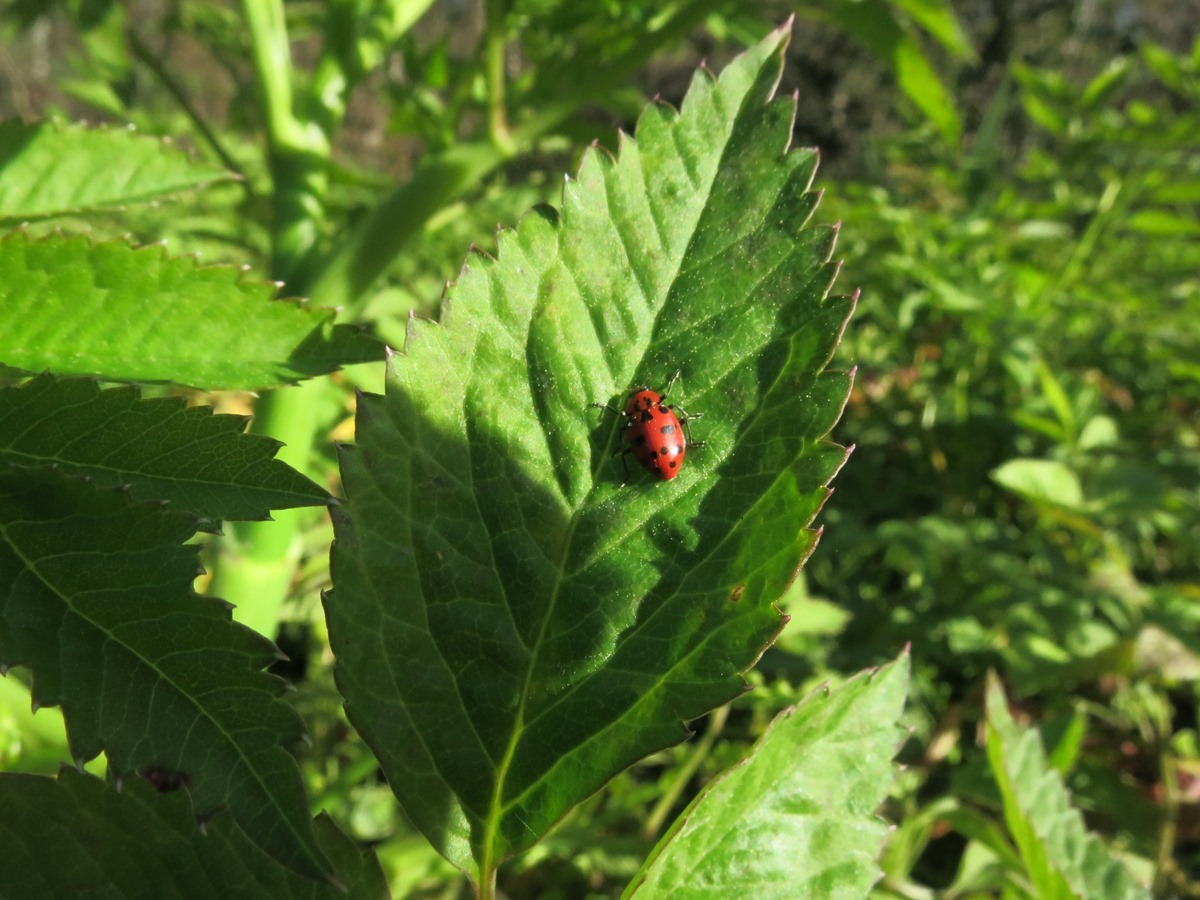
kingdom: Animalia
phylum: Arthropoda
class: Insecta
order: Coleoptera
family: Coccinellidae
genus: Coleomegilla
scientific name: Coleomegilla maculata
